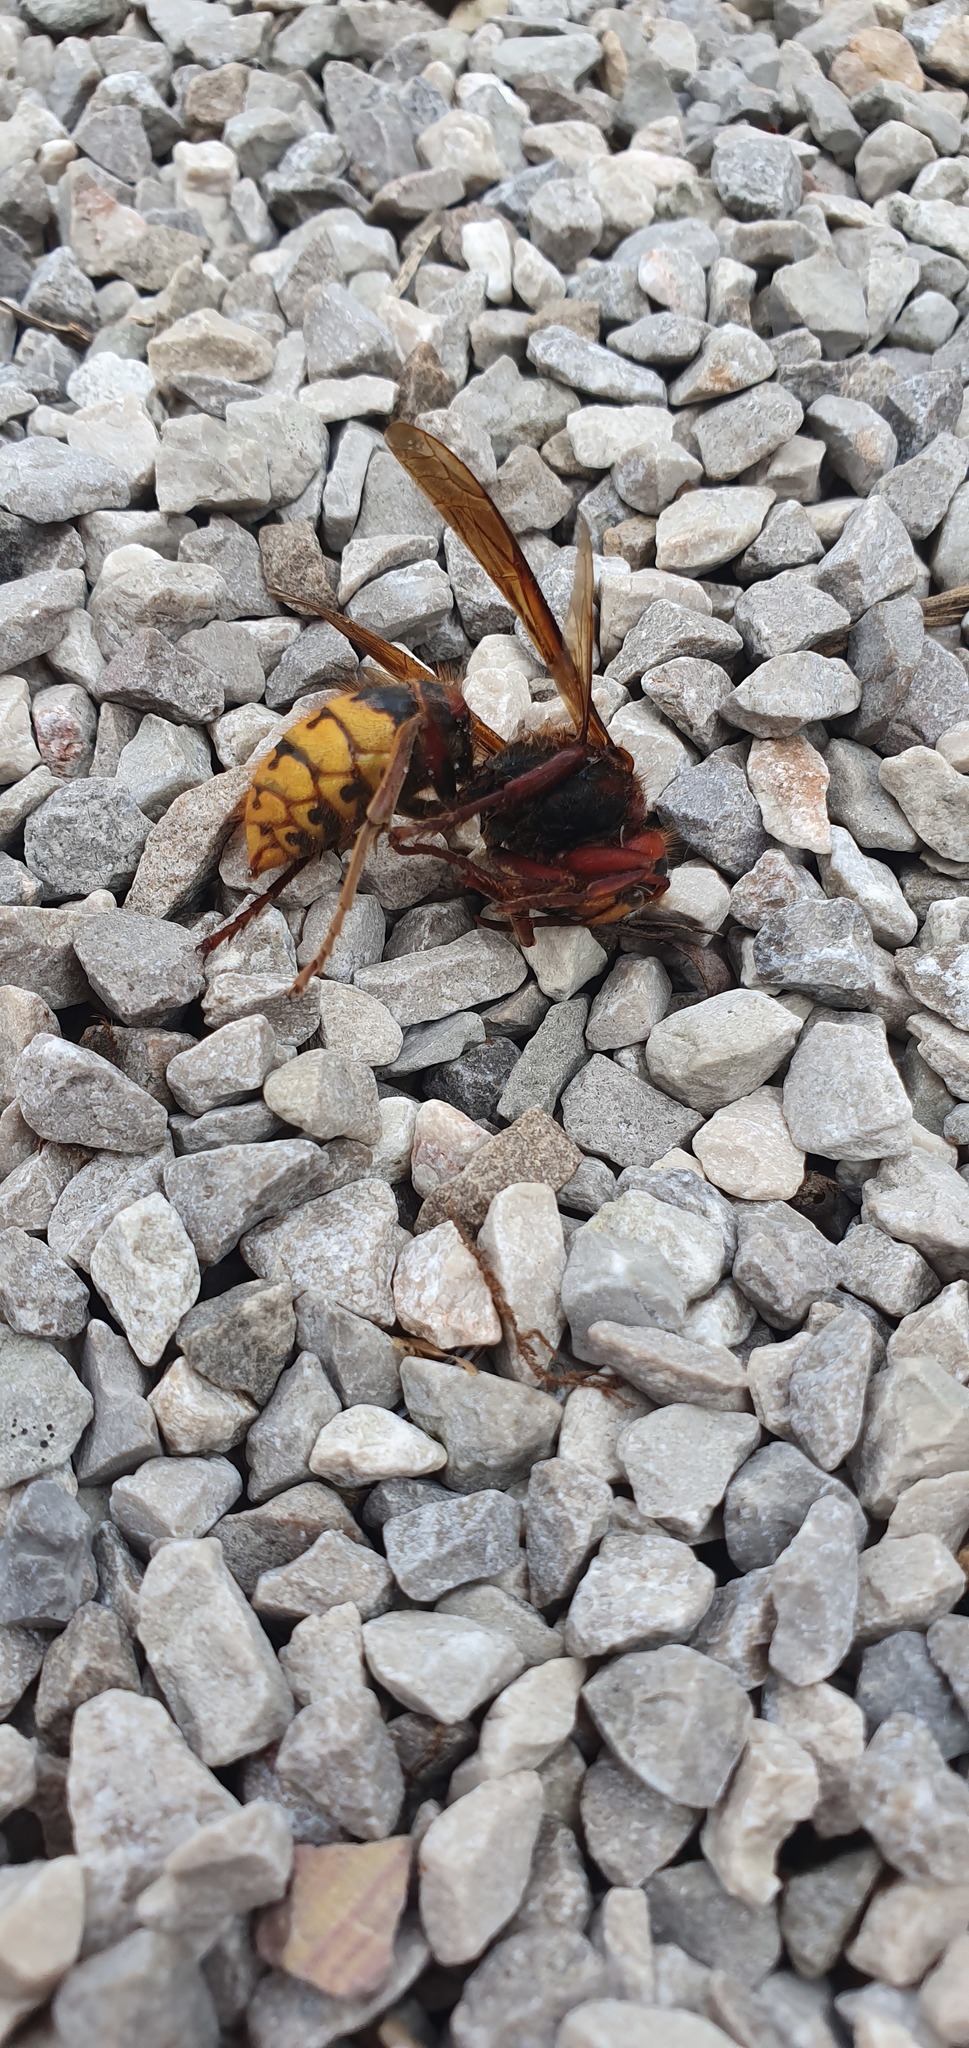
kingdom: Animalia
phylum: Arthropoda
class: Insecta
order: Hymenoptera
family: Vespidae
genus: Vespa
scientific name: Vespa crabro
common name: Hornet
